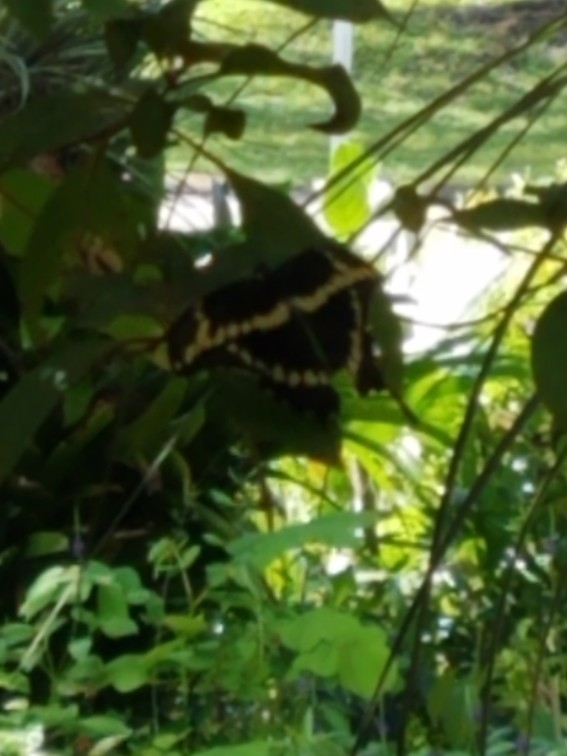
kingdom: Animalia
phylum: Arthropoda
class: Insecta
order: Lepidoptera
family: Papilionidae
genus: Papilio
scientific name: Papilio cresphontes
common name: Giant swallowtail
